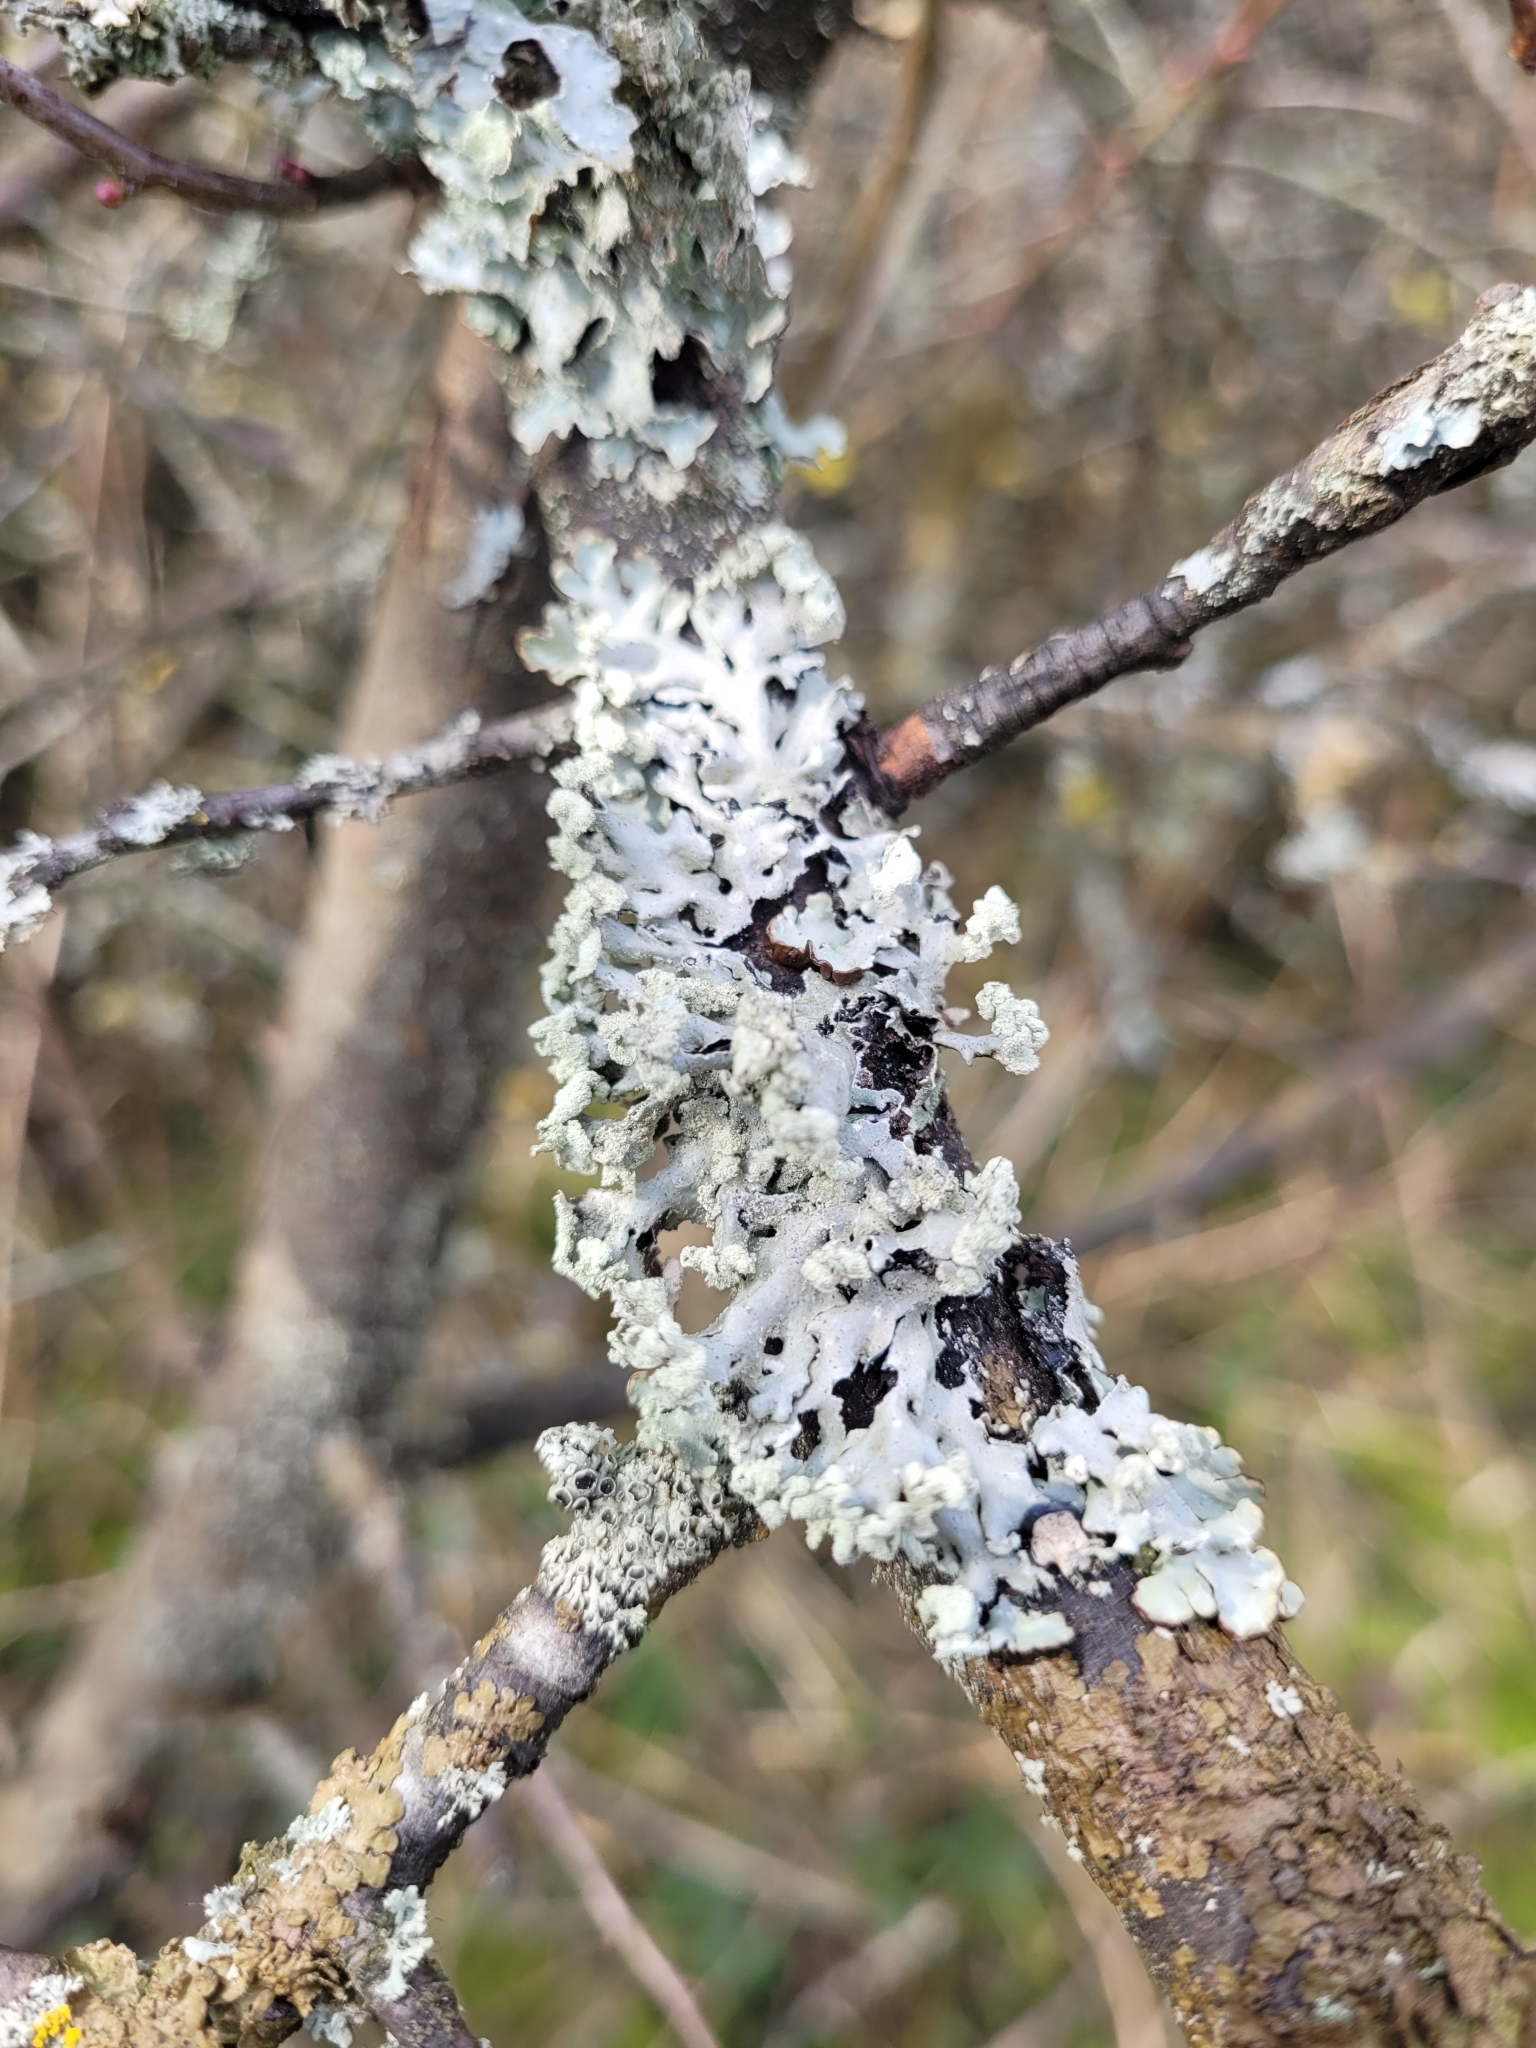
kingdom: Fungi
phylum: Ascomycota
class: Lecanoromycetes
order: Lecanorales
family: Parmeliaceae
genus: Hypogymnia
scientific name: Hypogymnia physodes
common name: Dark crottle
